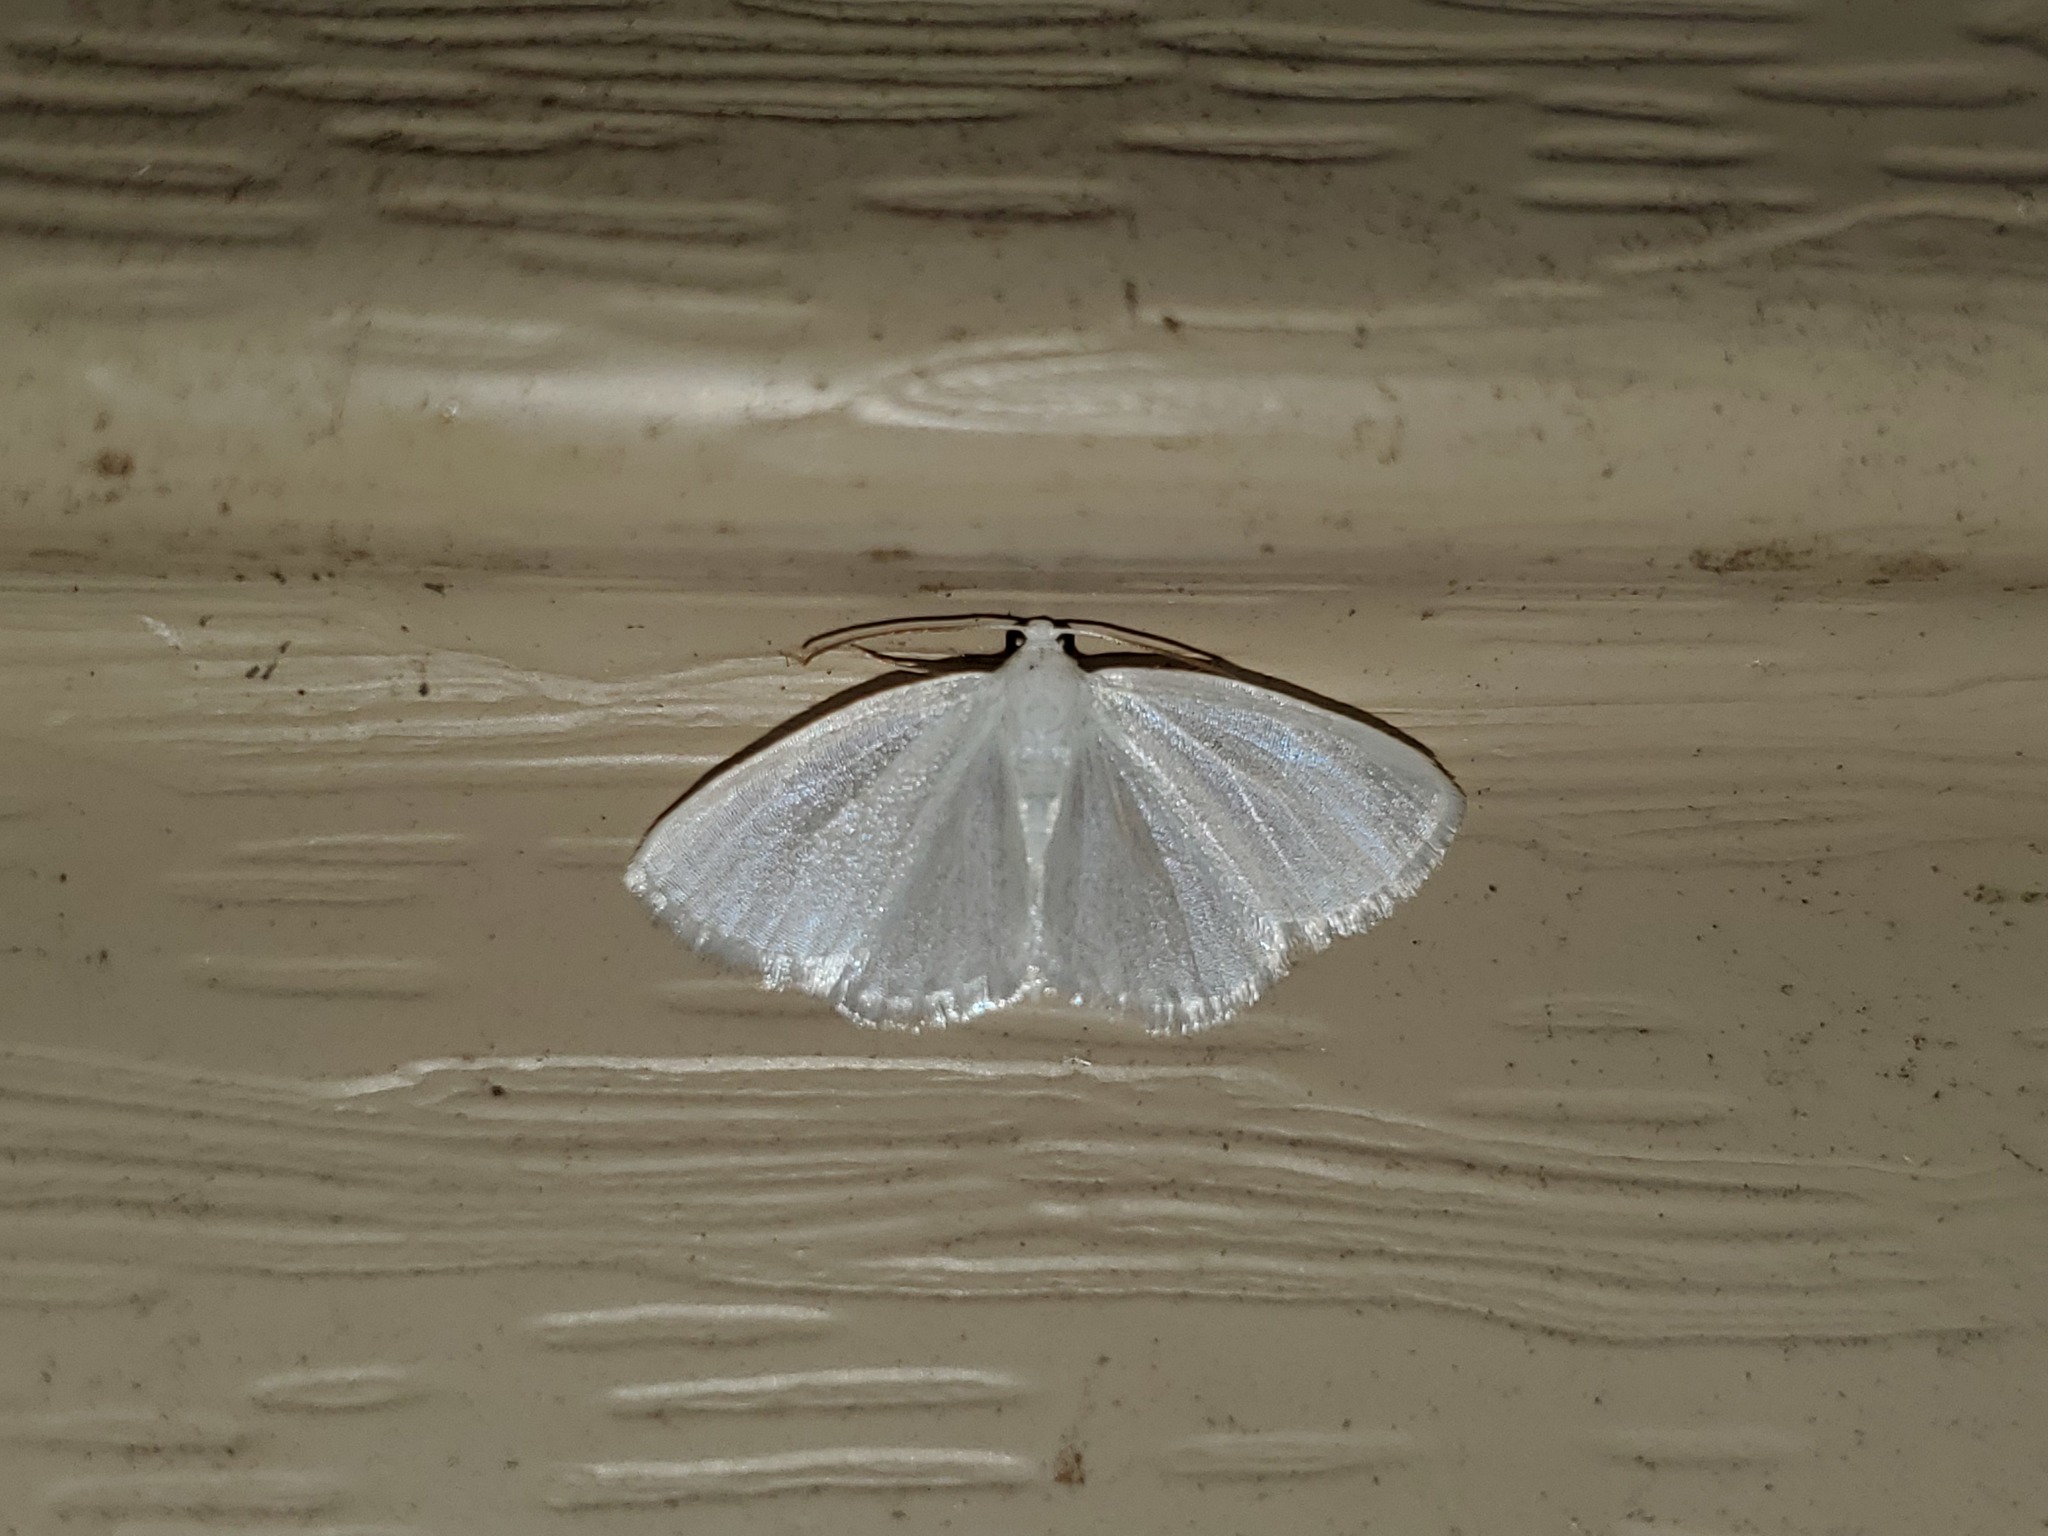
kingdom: Animalia
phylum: Arthropoda
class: Insecta
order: Lepidoptera
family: Geometridae
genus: Lomographa
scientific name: Lomographa vestaliata
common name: White spring moth
